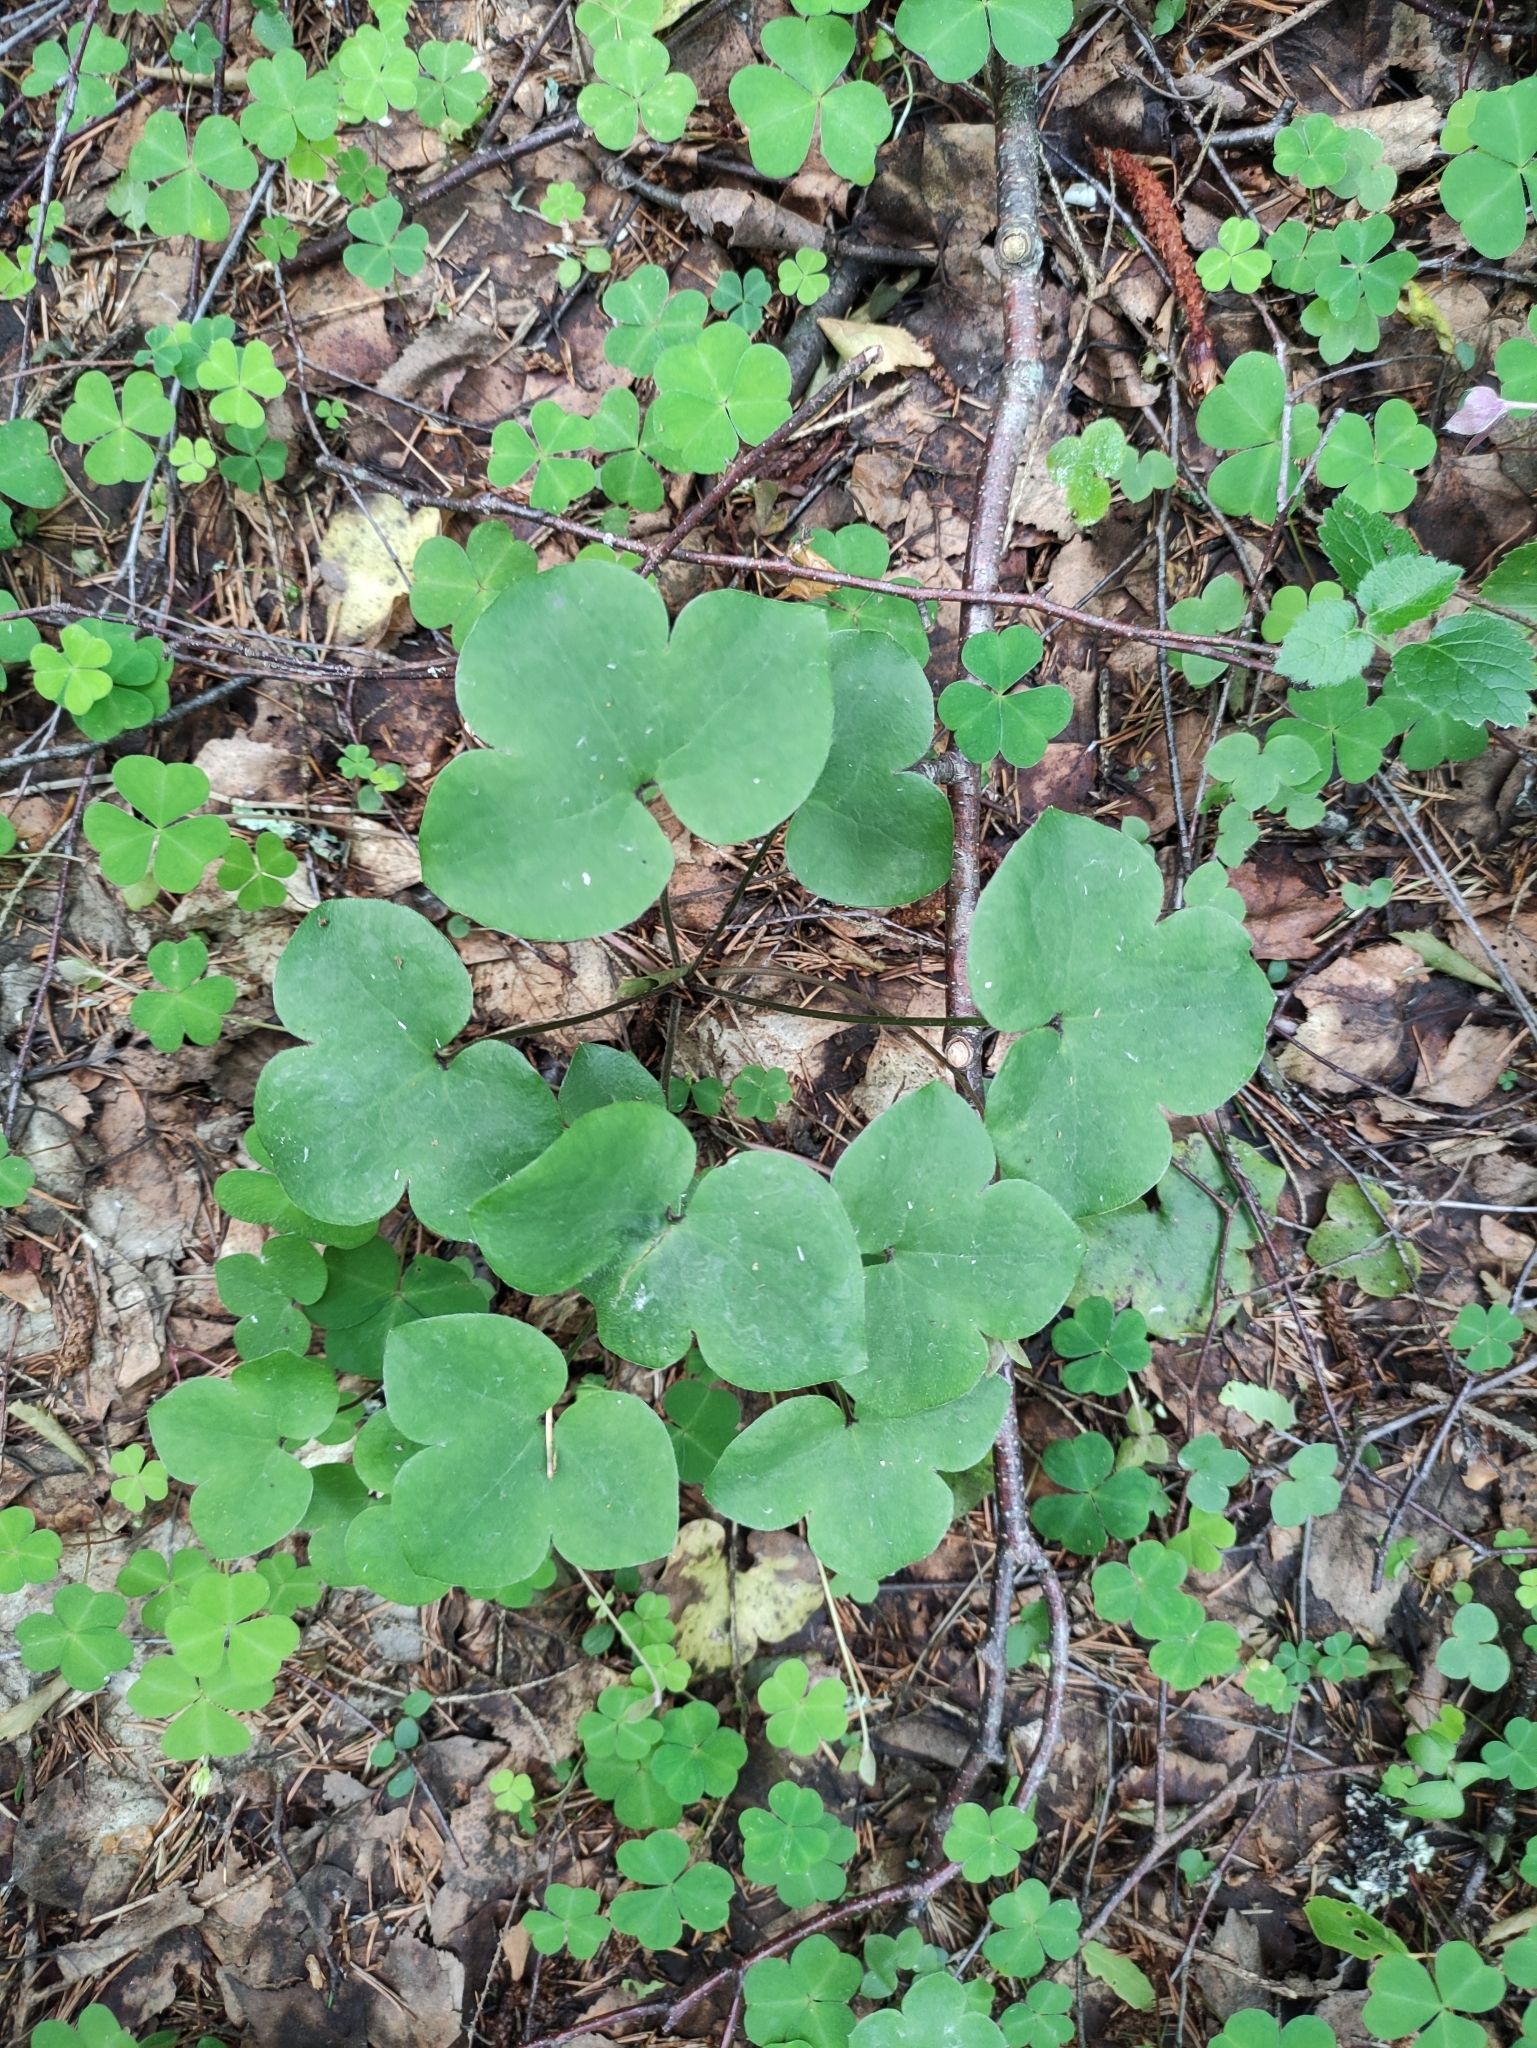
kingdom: Plantae
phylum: Tracheophyta
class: Magnoliopsida
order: Ranunculales
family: Ranunculaceae
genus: Hepatica
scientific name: Hepatica nobilis
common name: Liverleaf
